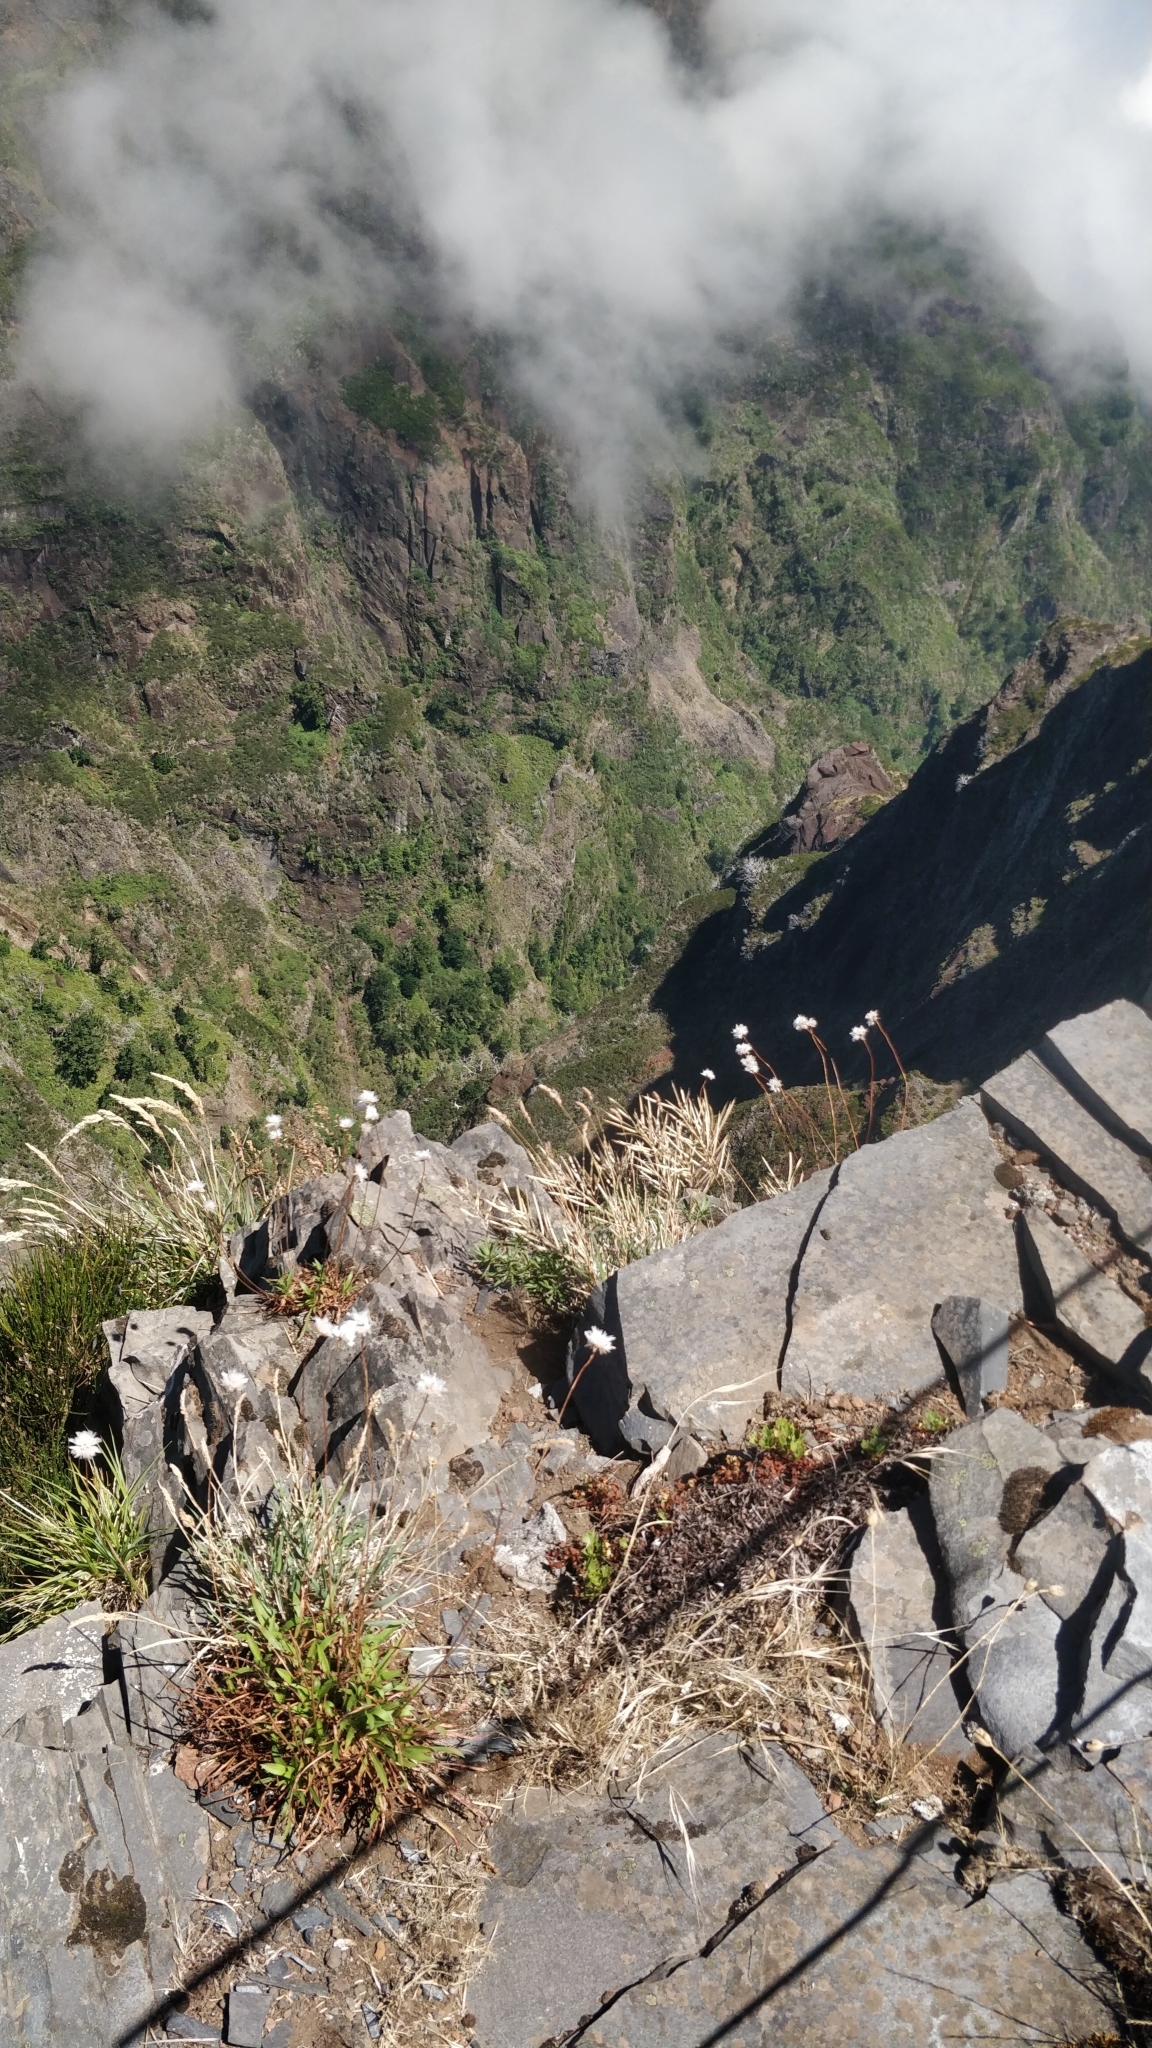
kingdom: Plantae
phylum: Tracheophyta
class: Magnoliopsida
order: Caryophyllales
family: Plumbaginaceae
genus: Armeria
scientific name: Armeria maderensis
